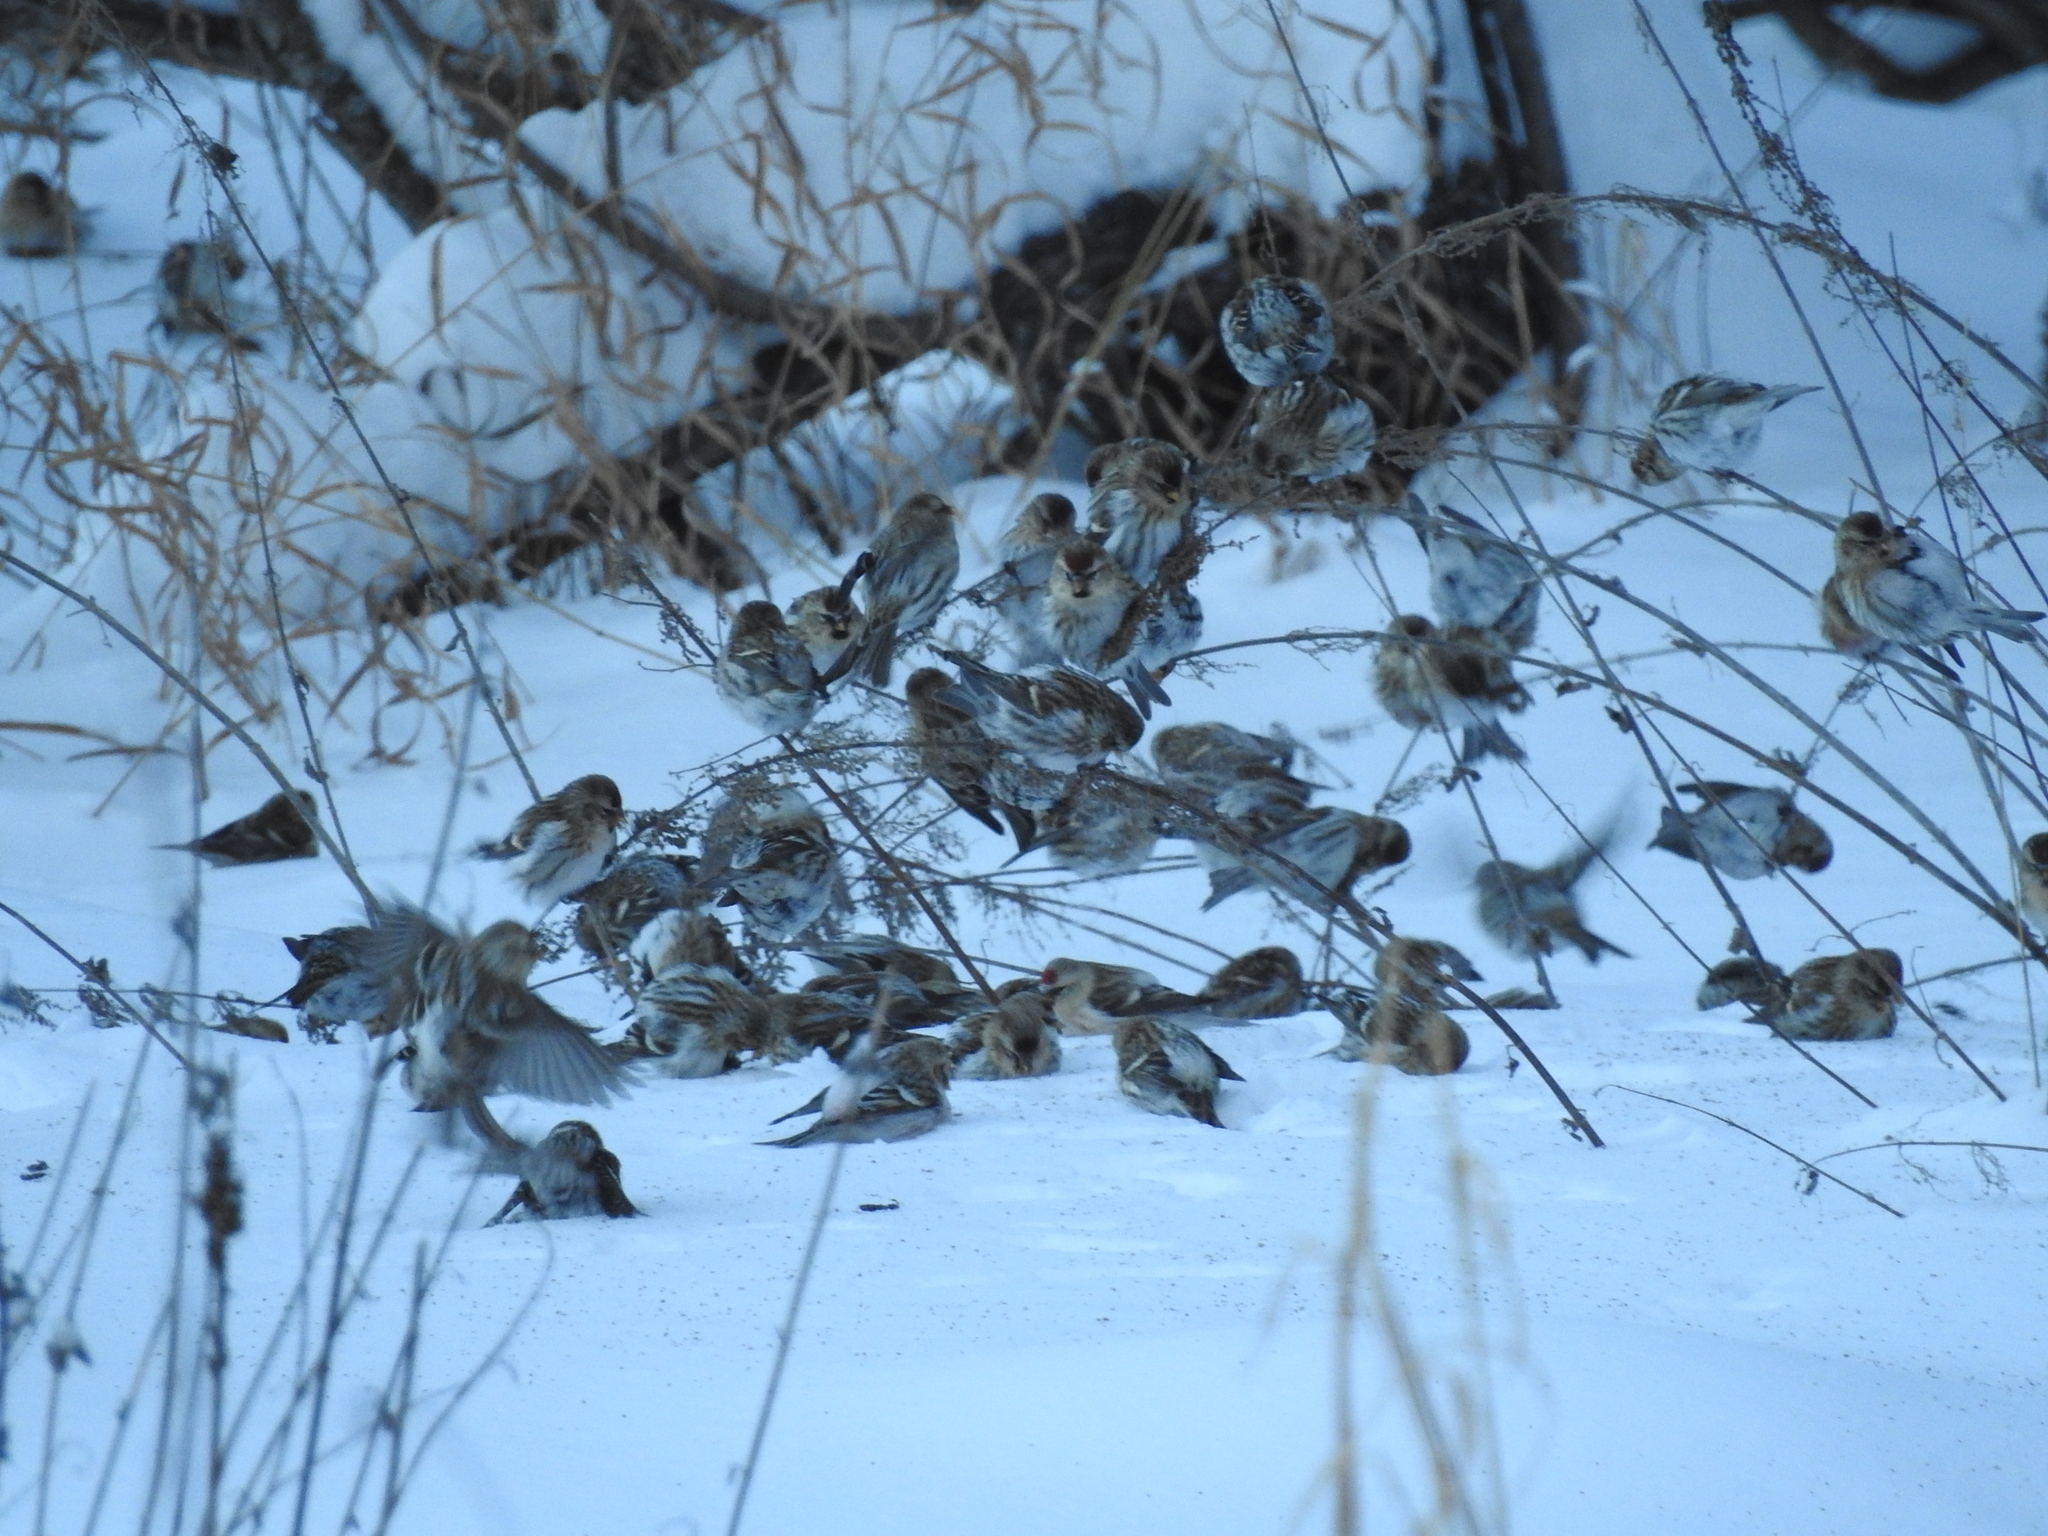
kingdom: Animalia
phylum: Chordata
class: Aves
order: Passeriformes
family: Fringillidae
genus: Acanthis
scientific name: Acanthis flammea
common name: Common redpoll
